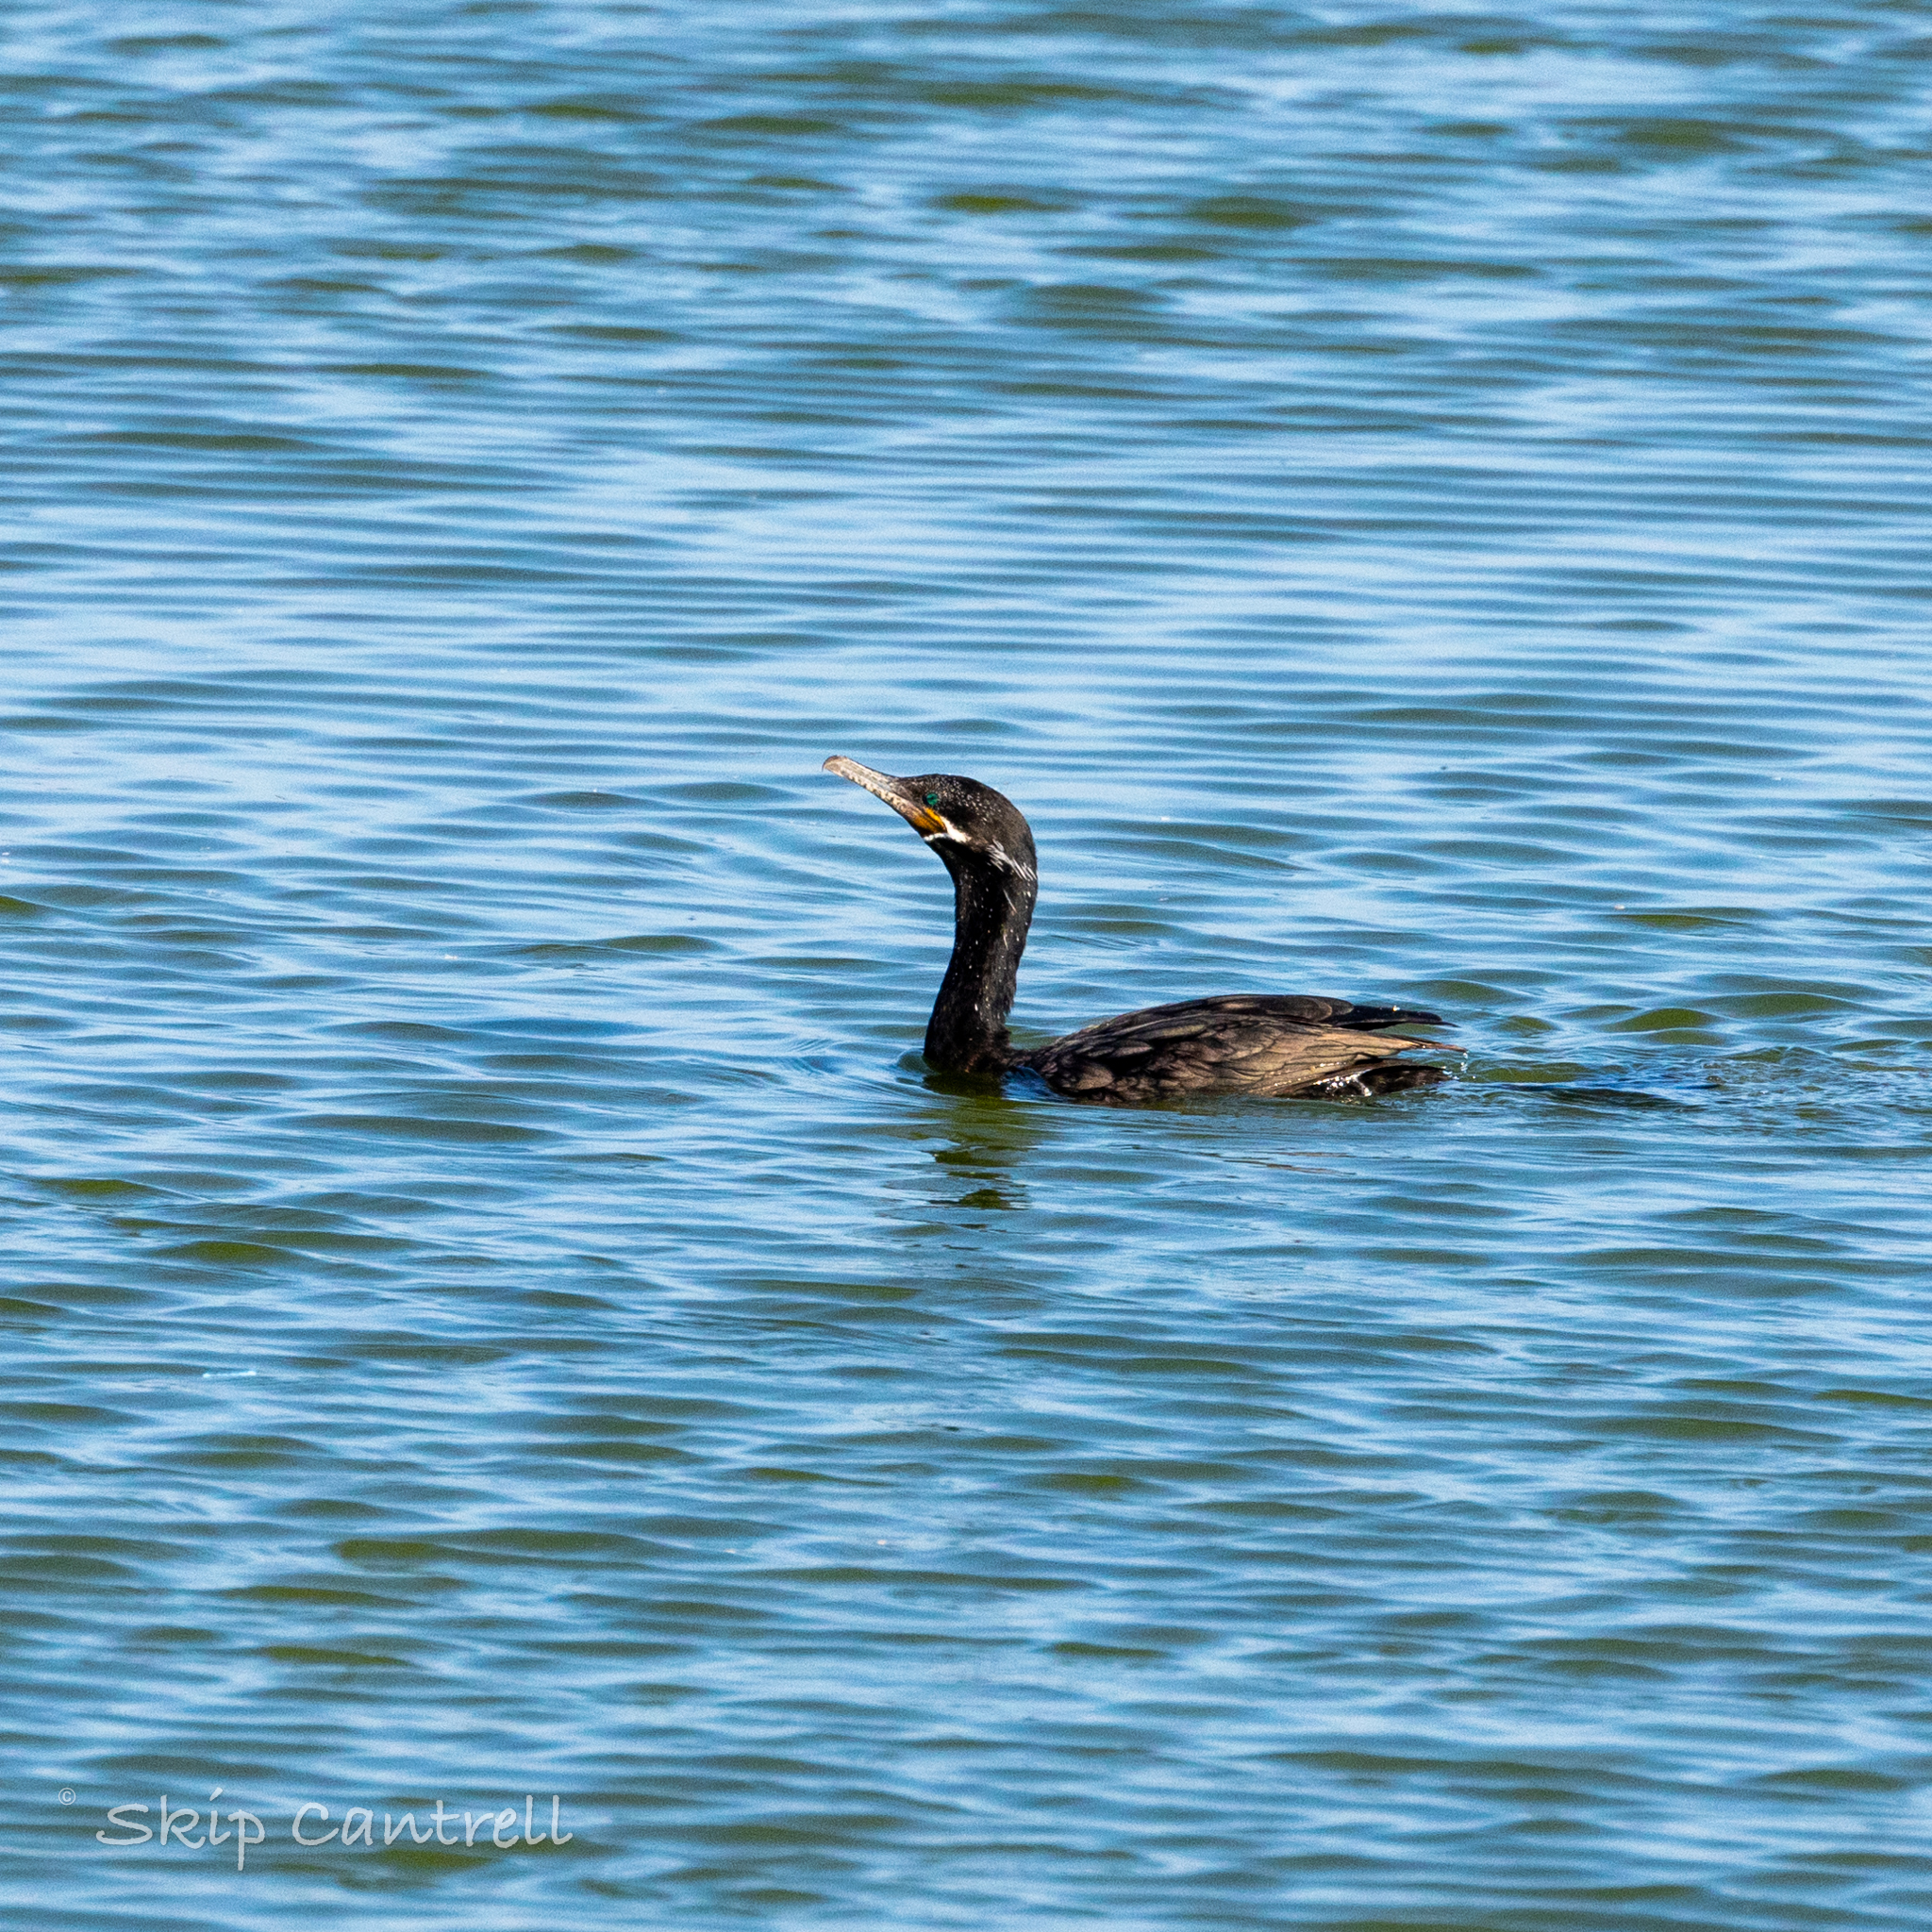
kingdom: Animalia
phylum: Chordata
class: Aves
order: Suliformes
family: Phalacrocoracidae
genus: Phalacrocorax
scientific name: Phalacrocorax brasilianus
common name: Neotropic cormorant
